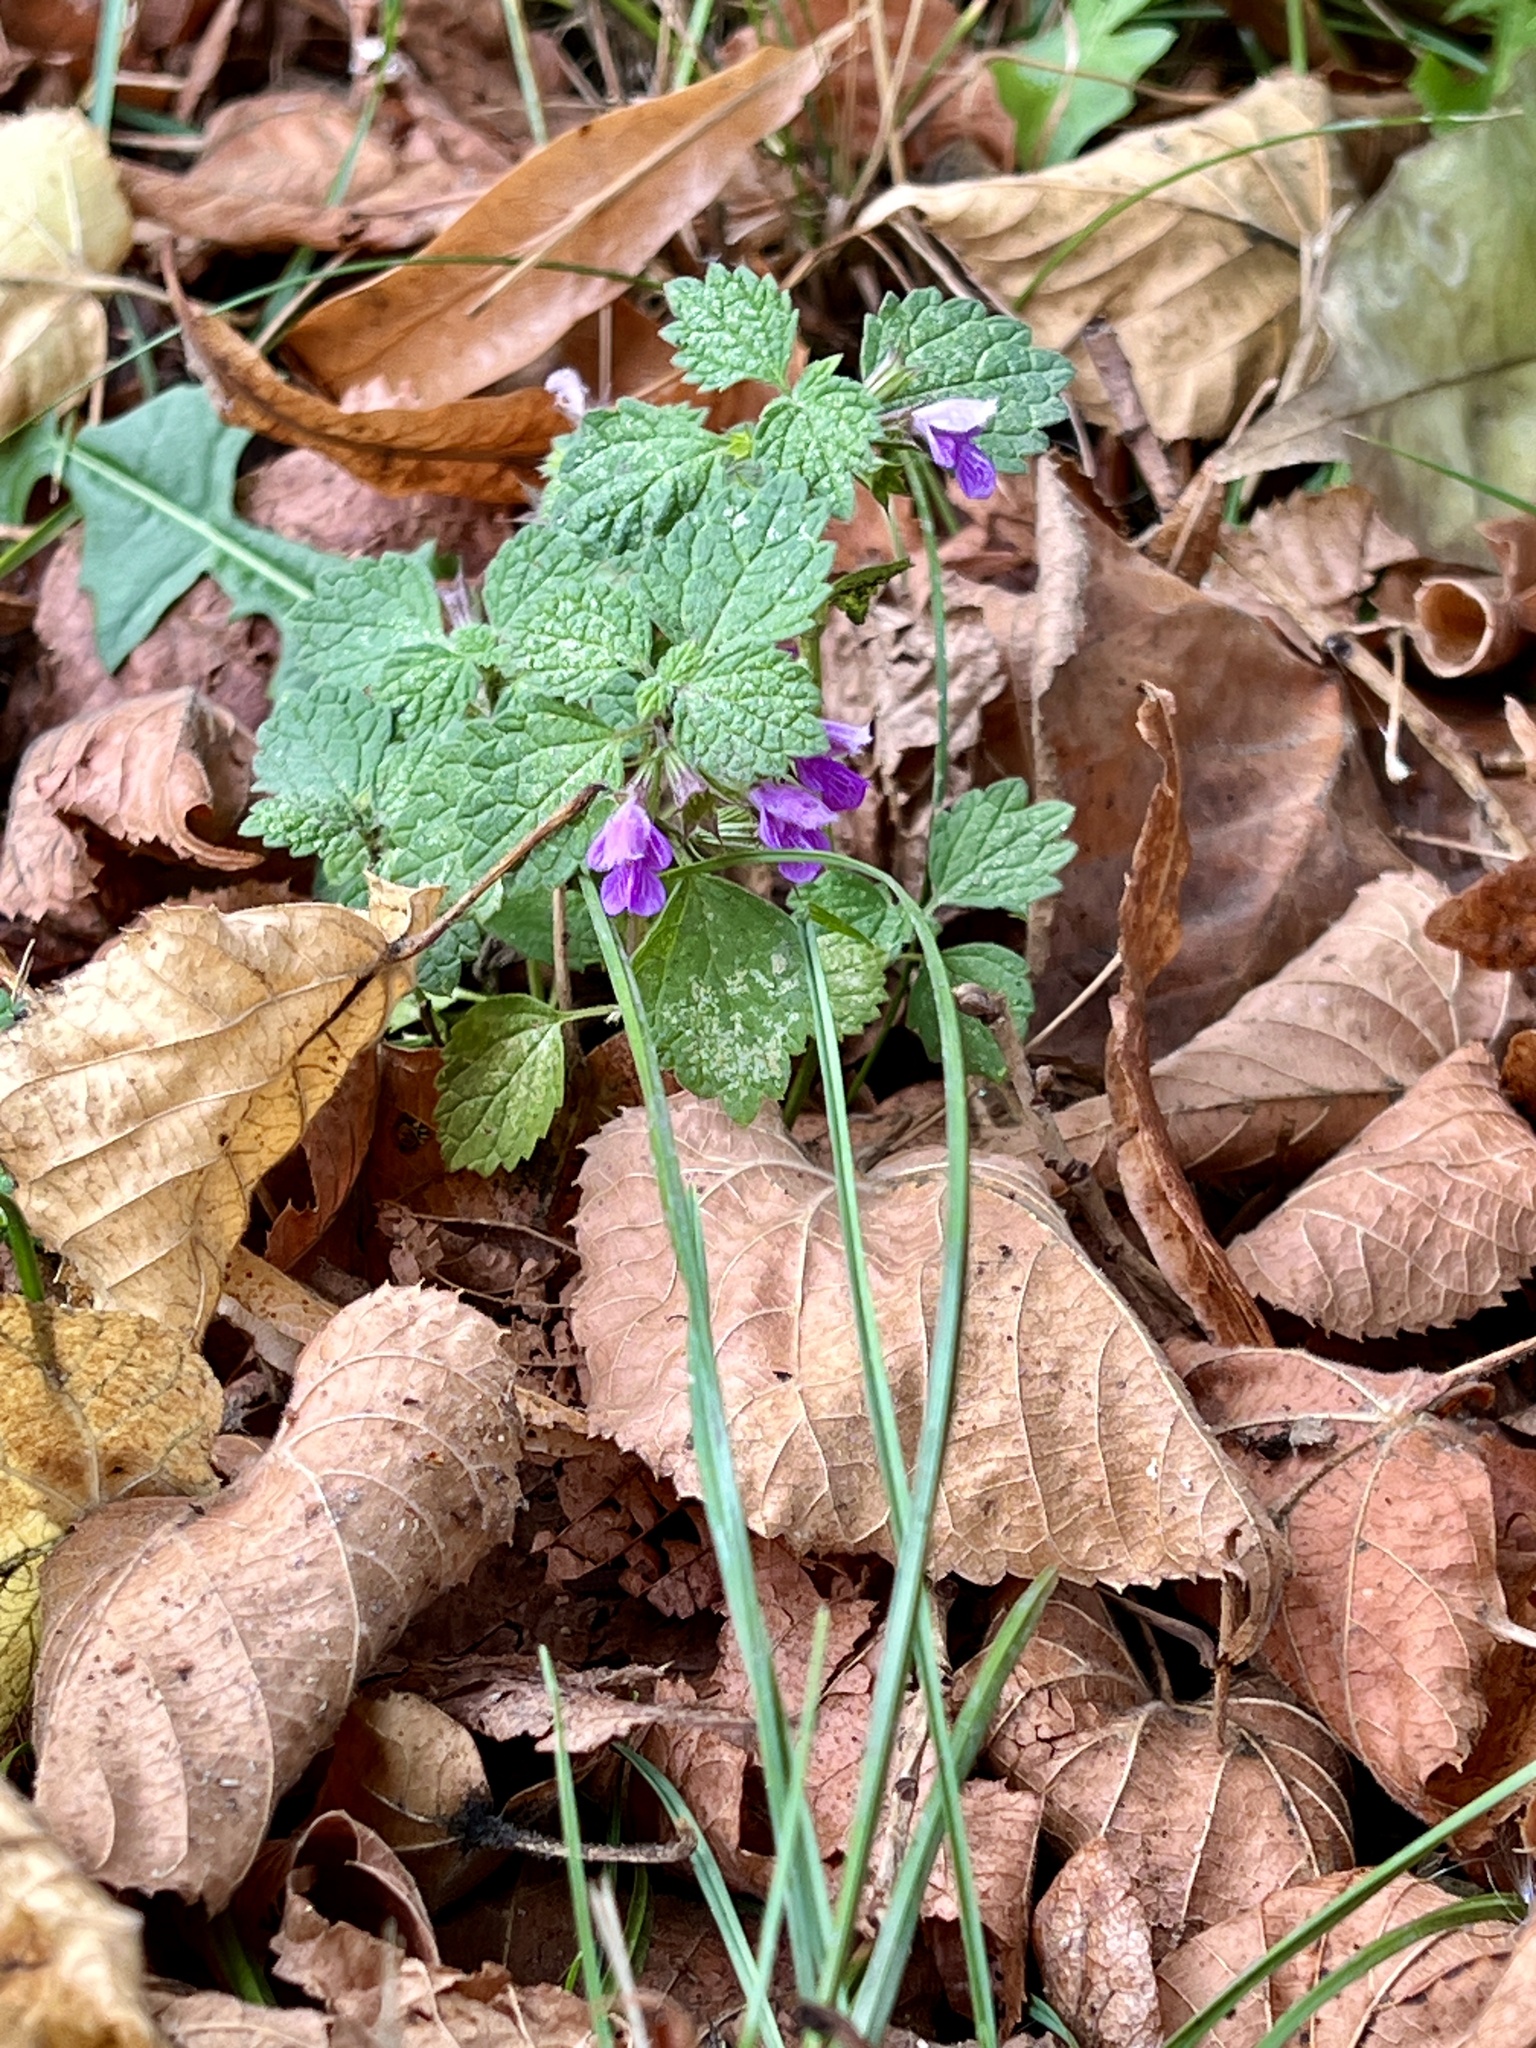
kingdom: Plantae
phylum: Tracheophyta
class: Magnoliopsida
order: Lamiales
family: Lamiaceae
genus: Ballota
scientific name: Ballota nigra
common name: Black horehound
